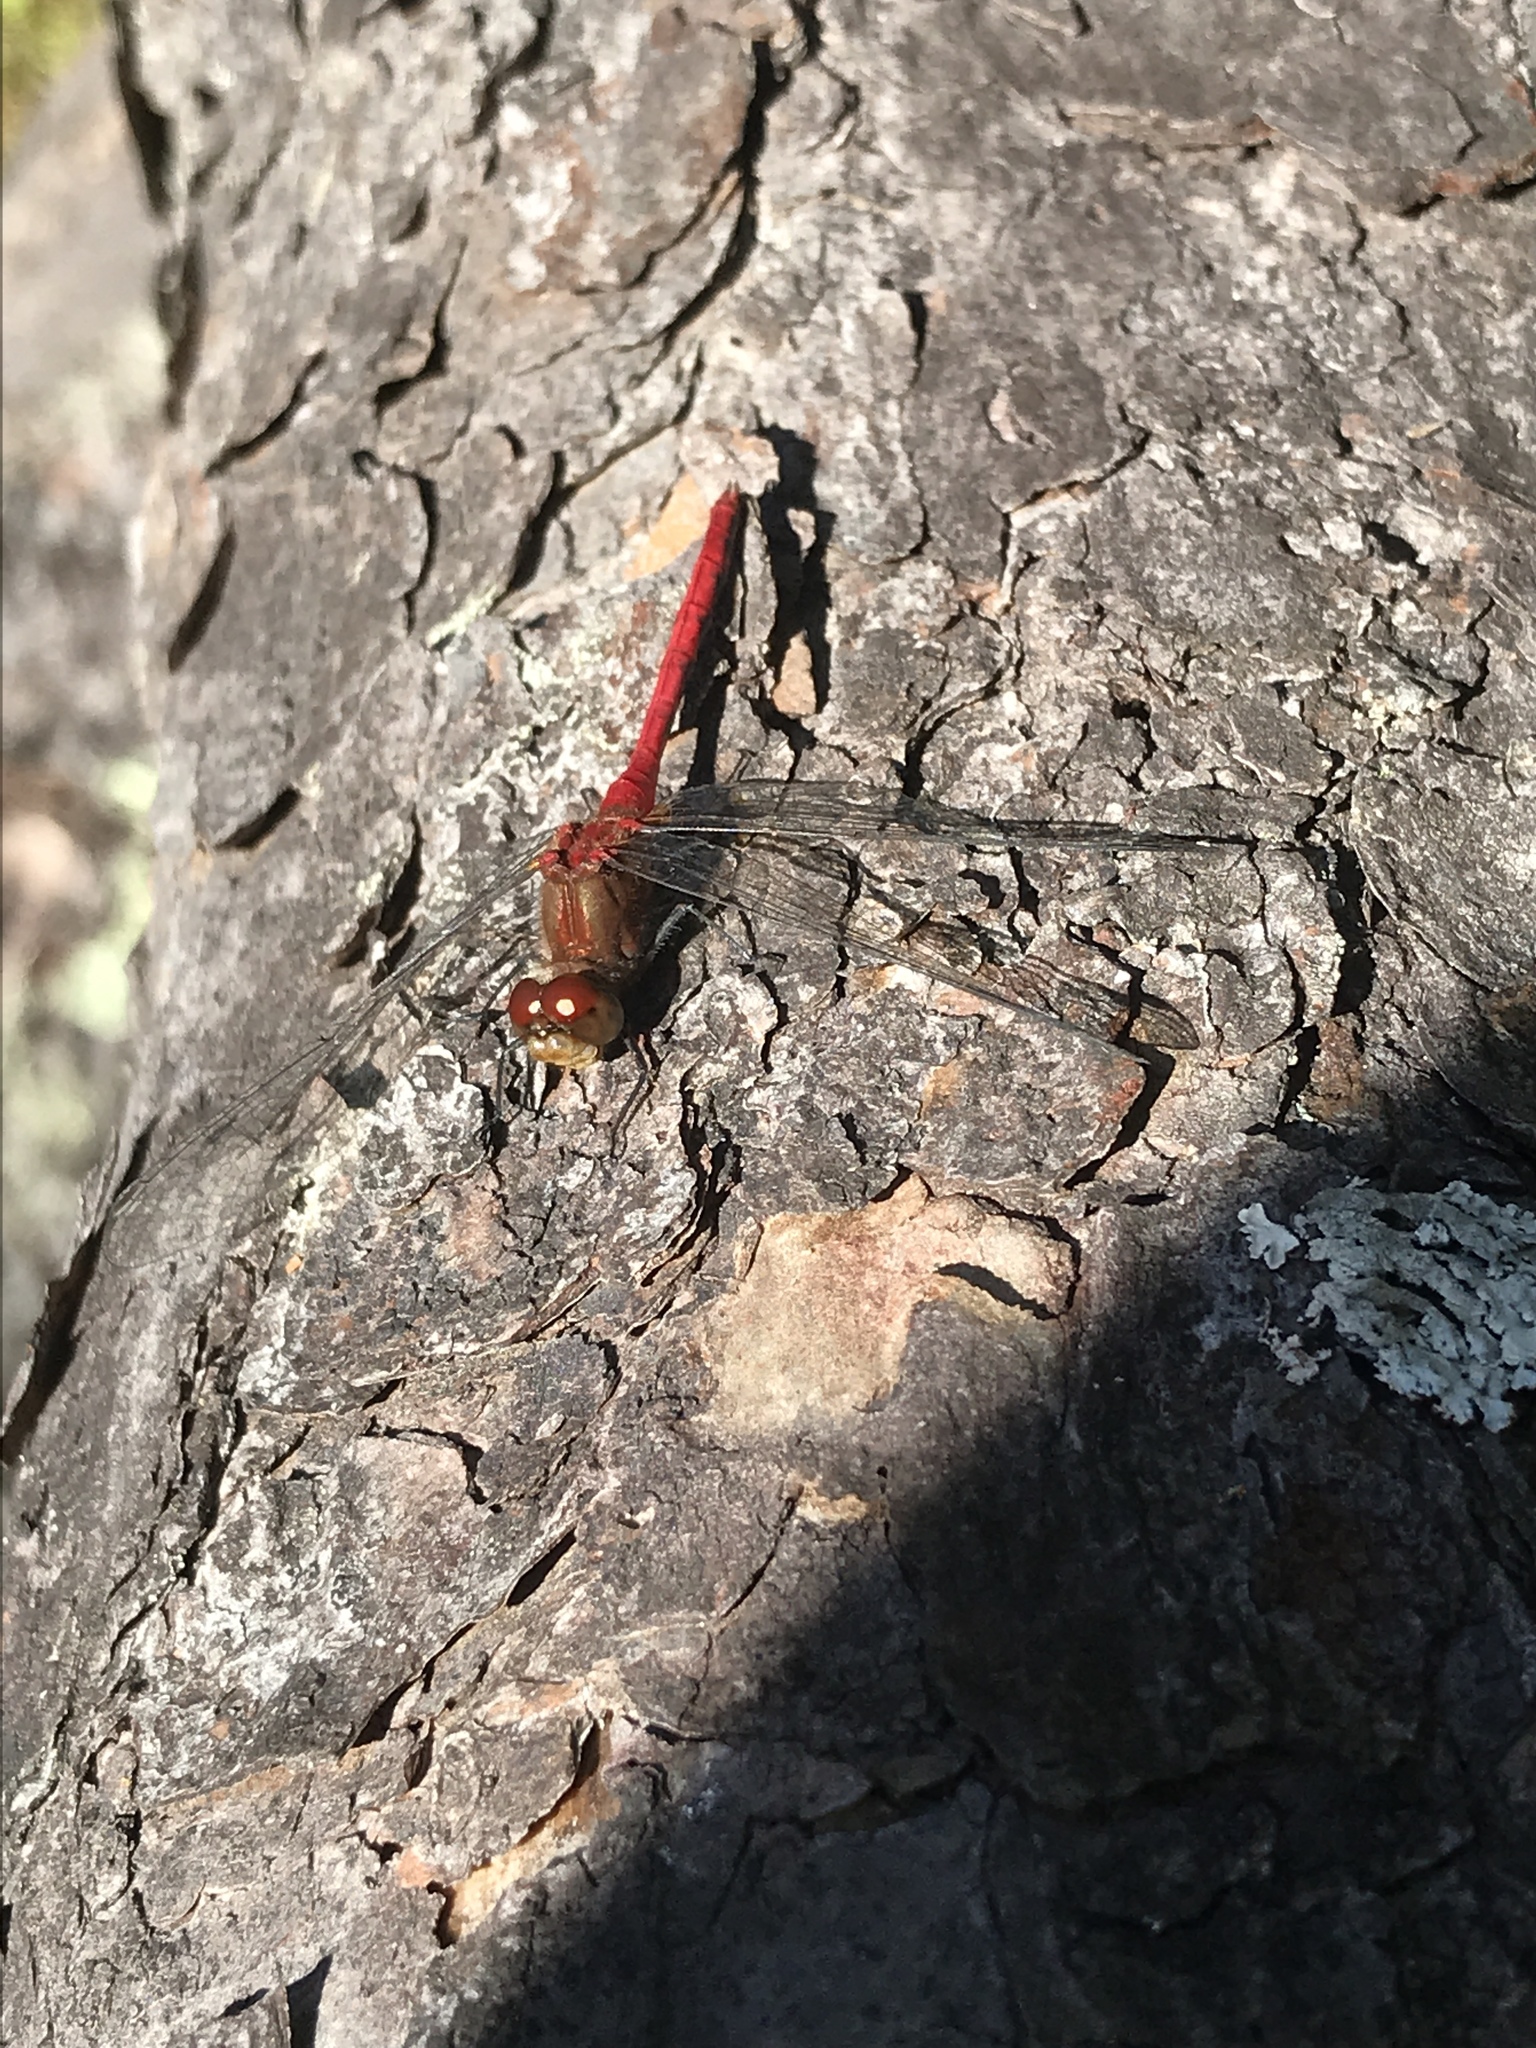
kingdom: Animalia
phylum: Arthropoda
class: Insecta
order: Odonata
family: Libellulidae
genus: Sympetrum
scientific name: Sympetrum
